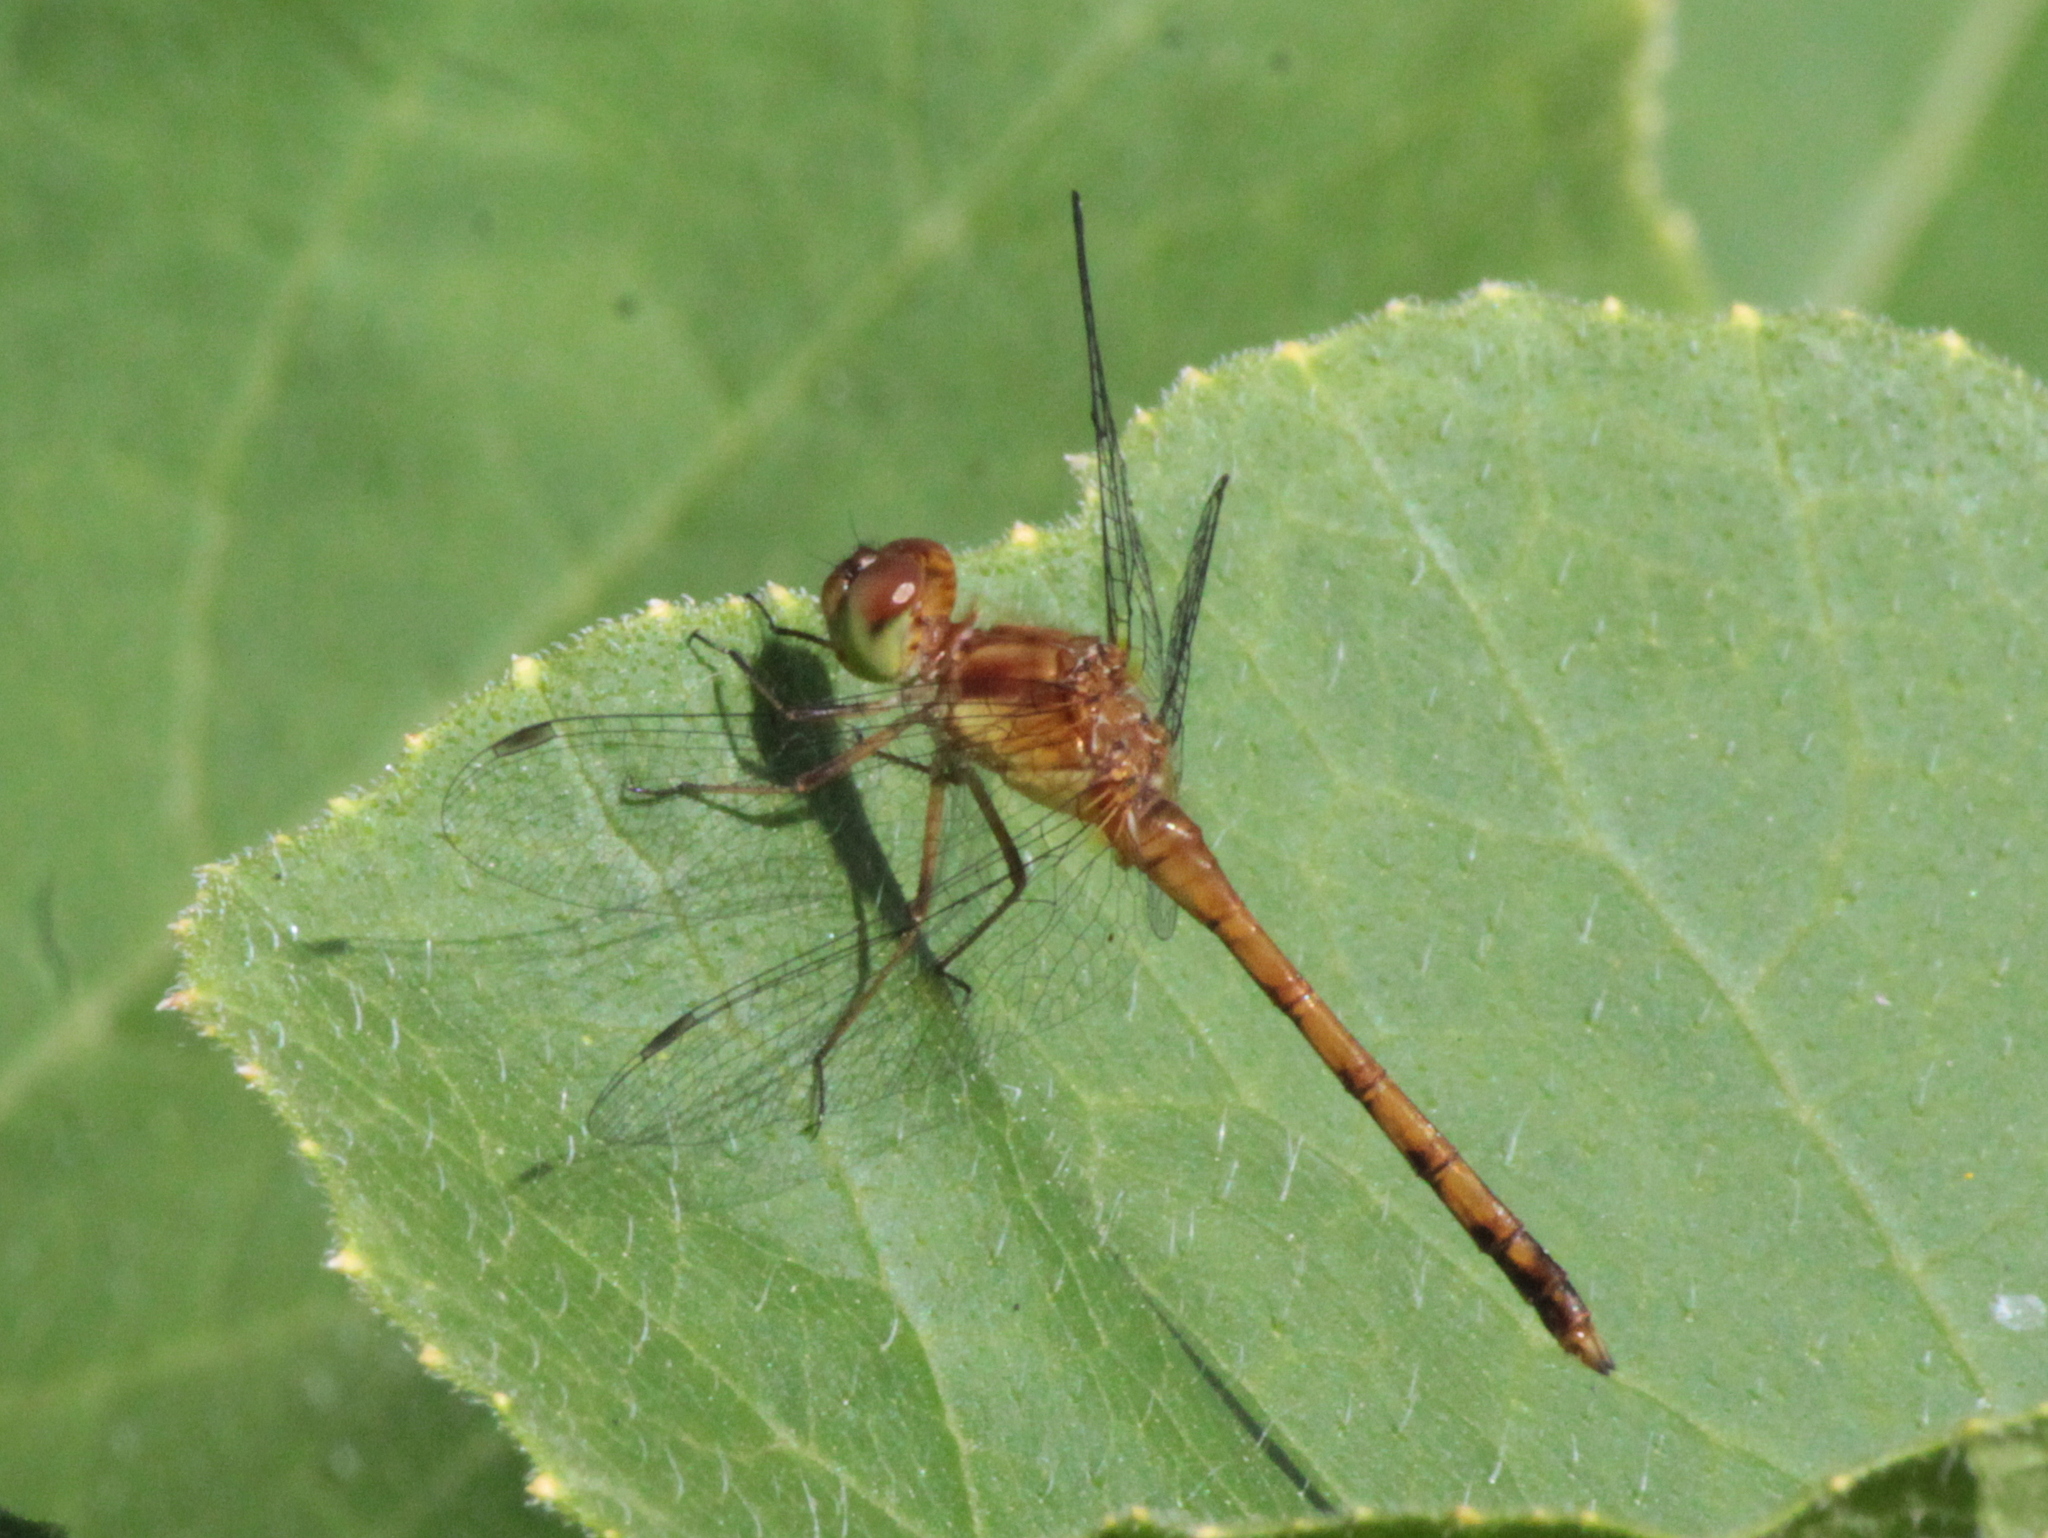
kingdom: Animalia
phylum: Arthropoda
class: Insecta
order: Odonata
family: Libellulidae
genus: Sympetrum
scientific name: Sympetrum vicinum
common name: Autumn meadowhawk
